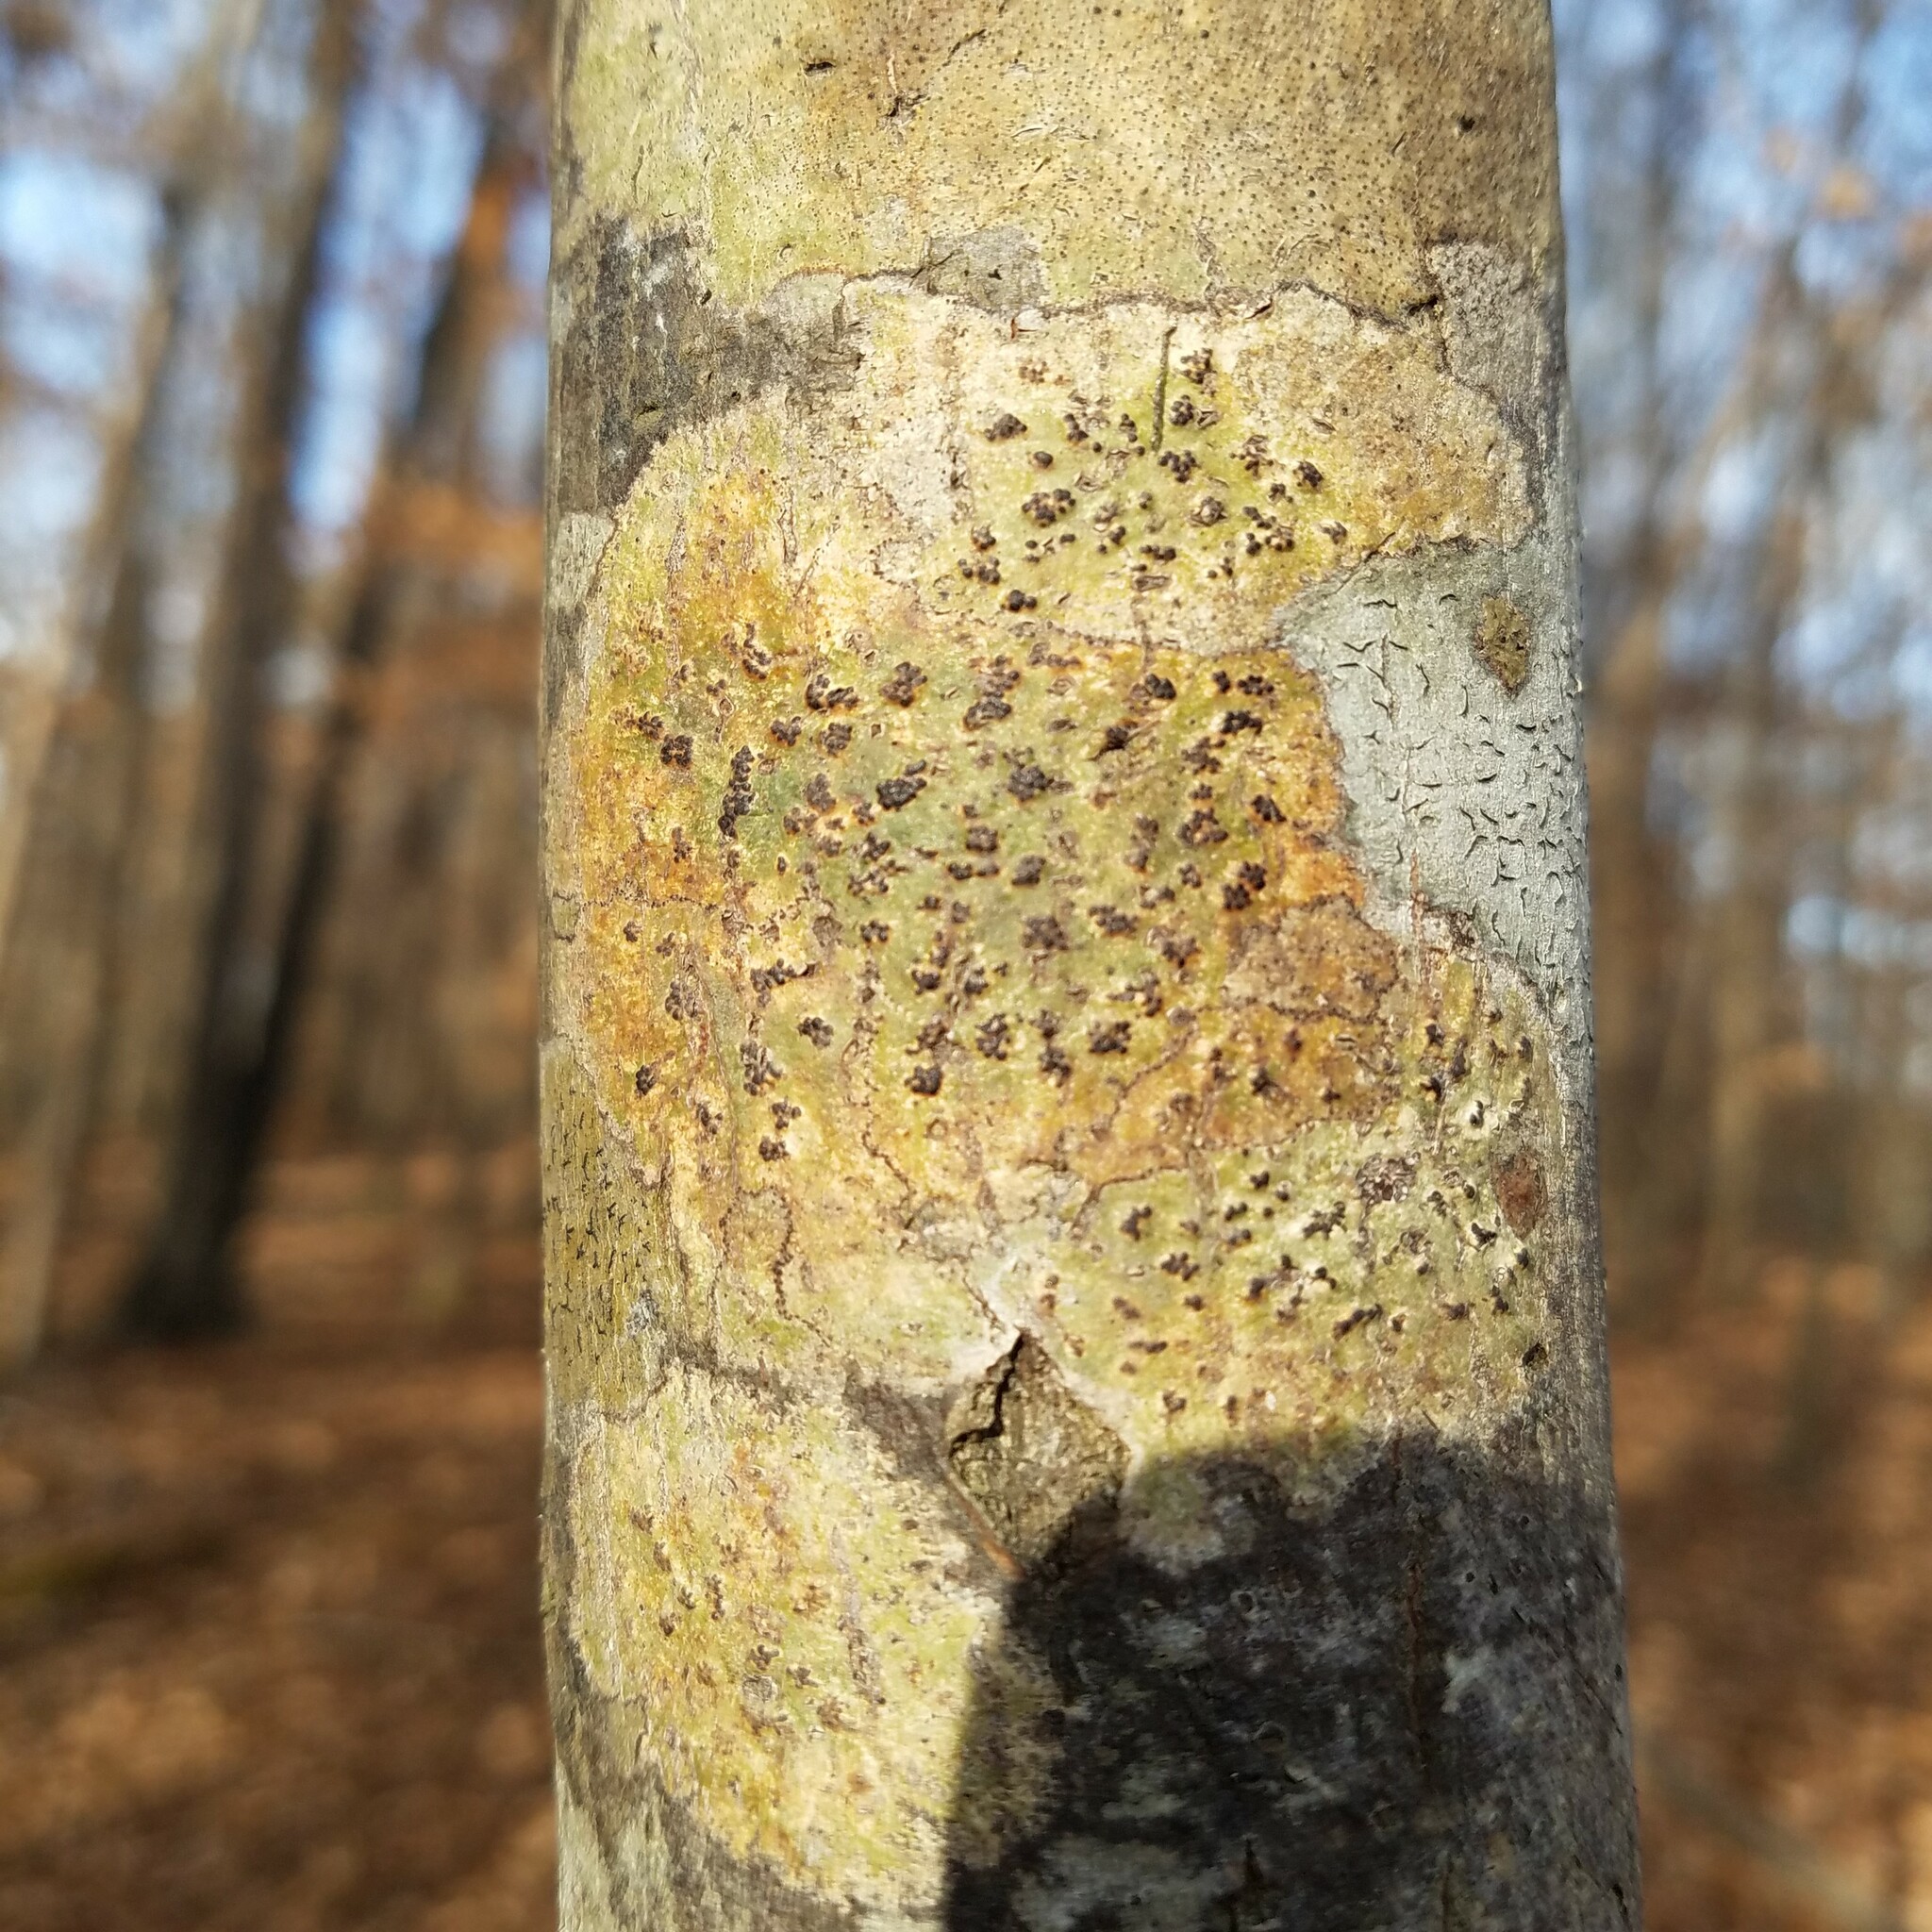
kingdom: Fungi
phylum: Ascomycota
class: Dothideomycetes
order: Trypetheliales
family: Trypetheliaceae
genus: Viridothelium
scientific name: Viridothelium virens
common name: Speckled blister lichen
